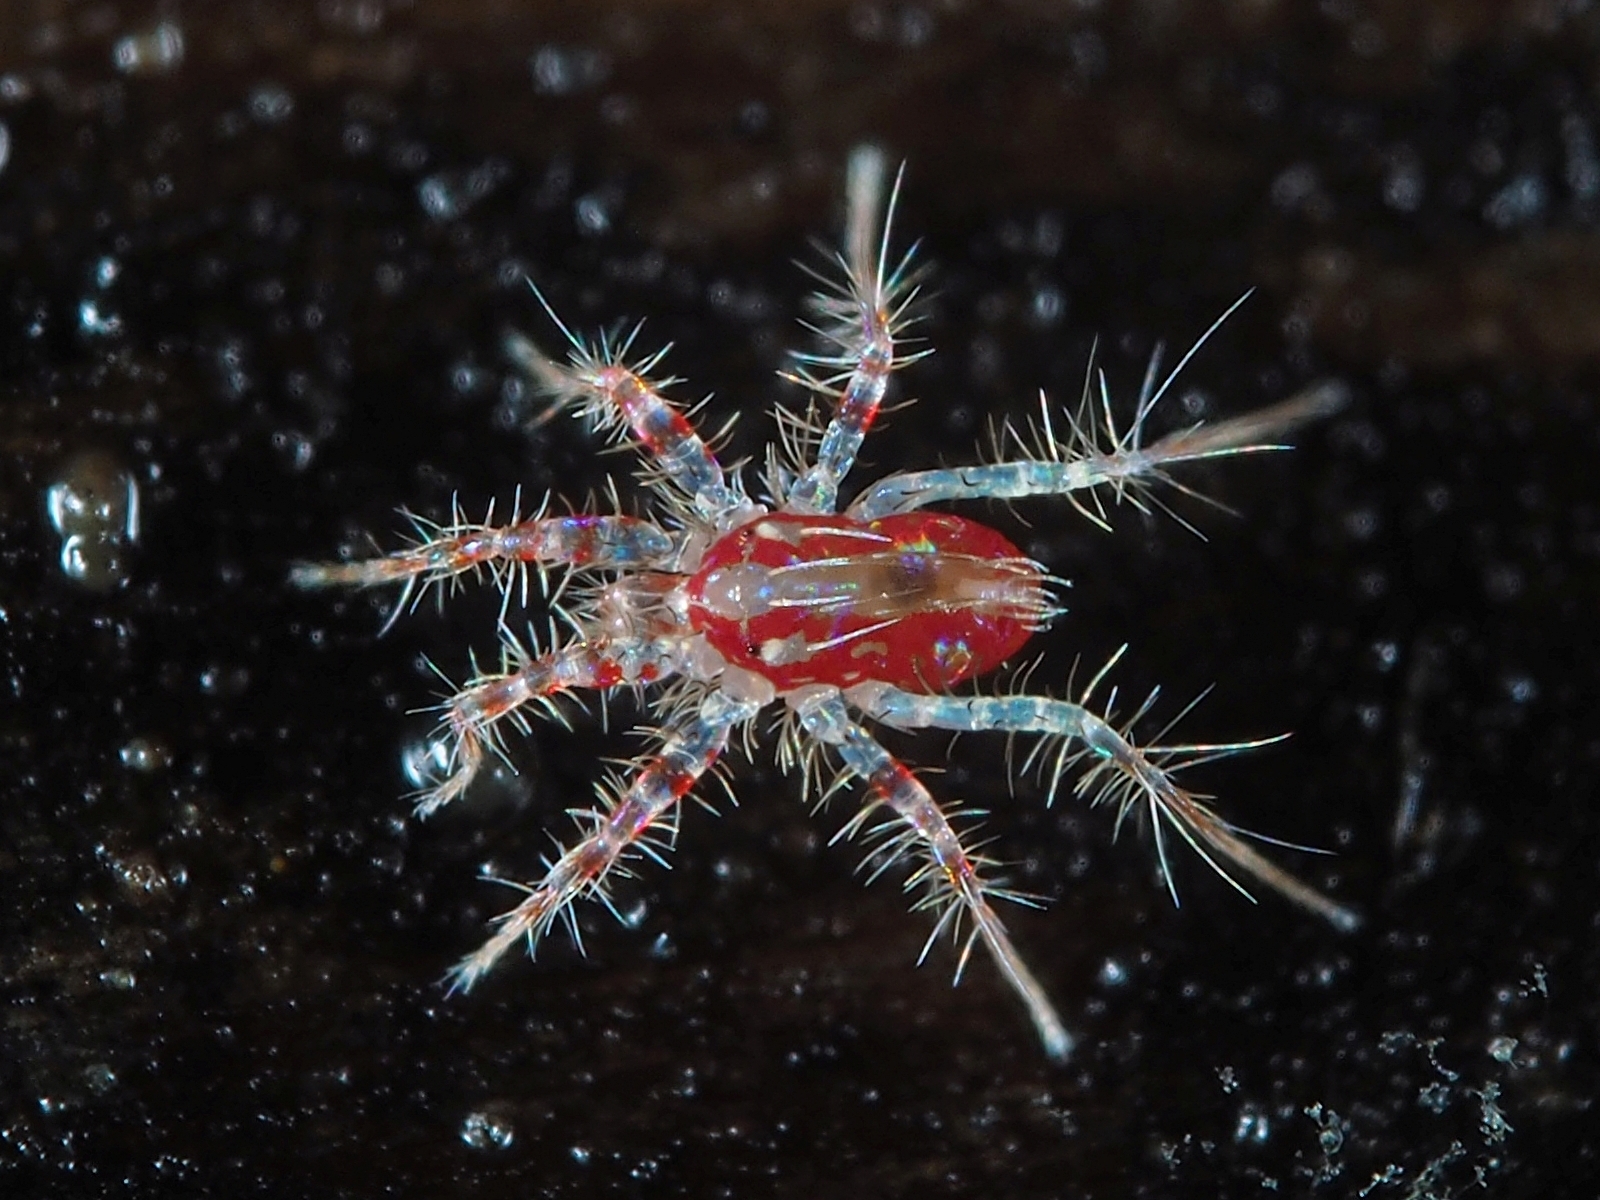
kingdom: Animalia
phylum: Arthropoda
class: Arachnida
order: Trombidiformes
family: Erythracaridae
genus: Erythracarus
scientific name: Erythracarus pyrrholeucum
